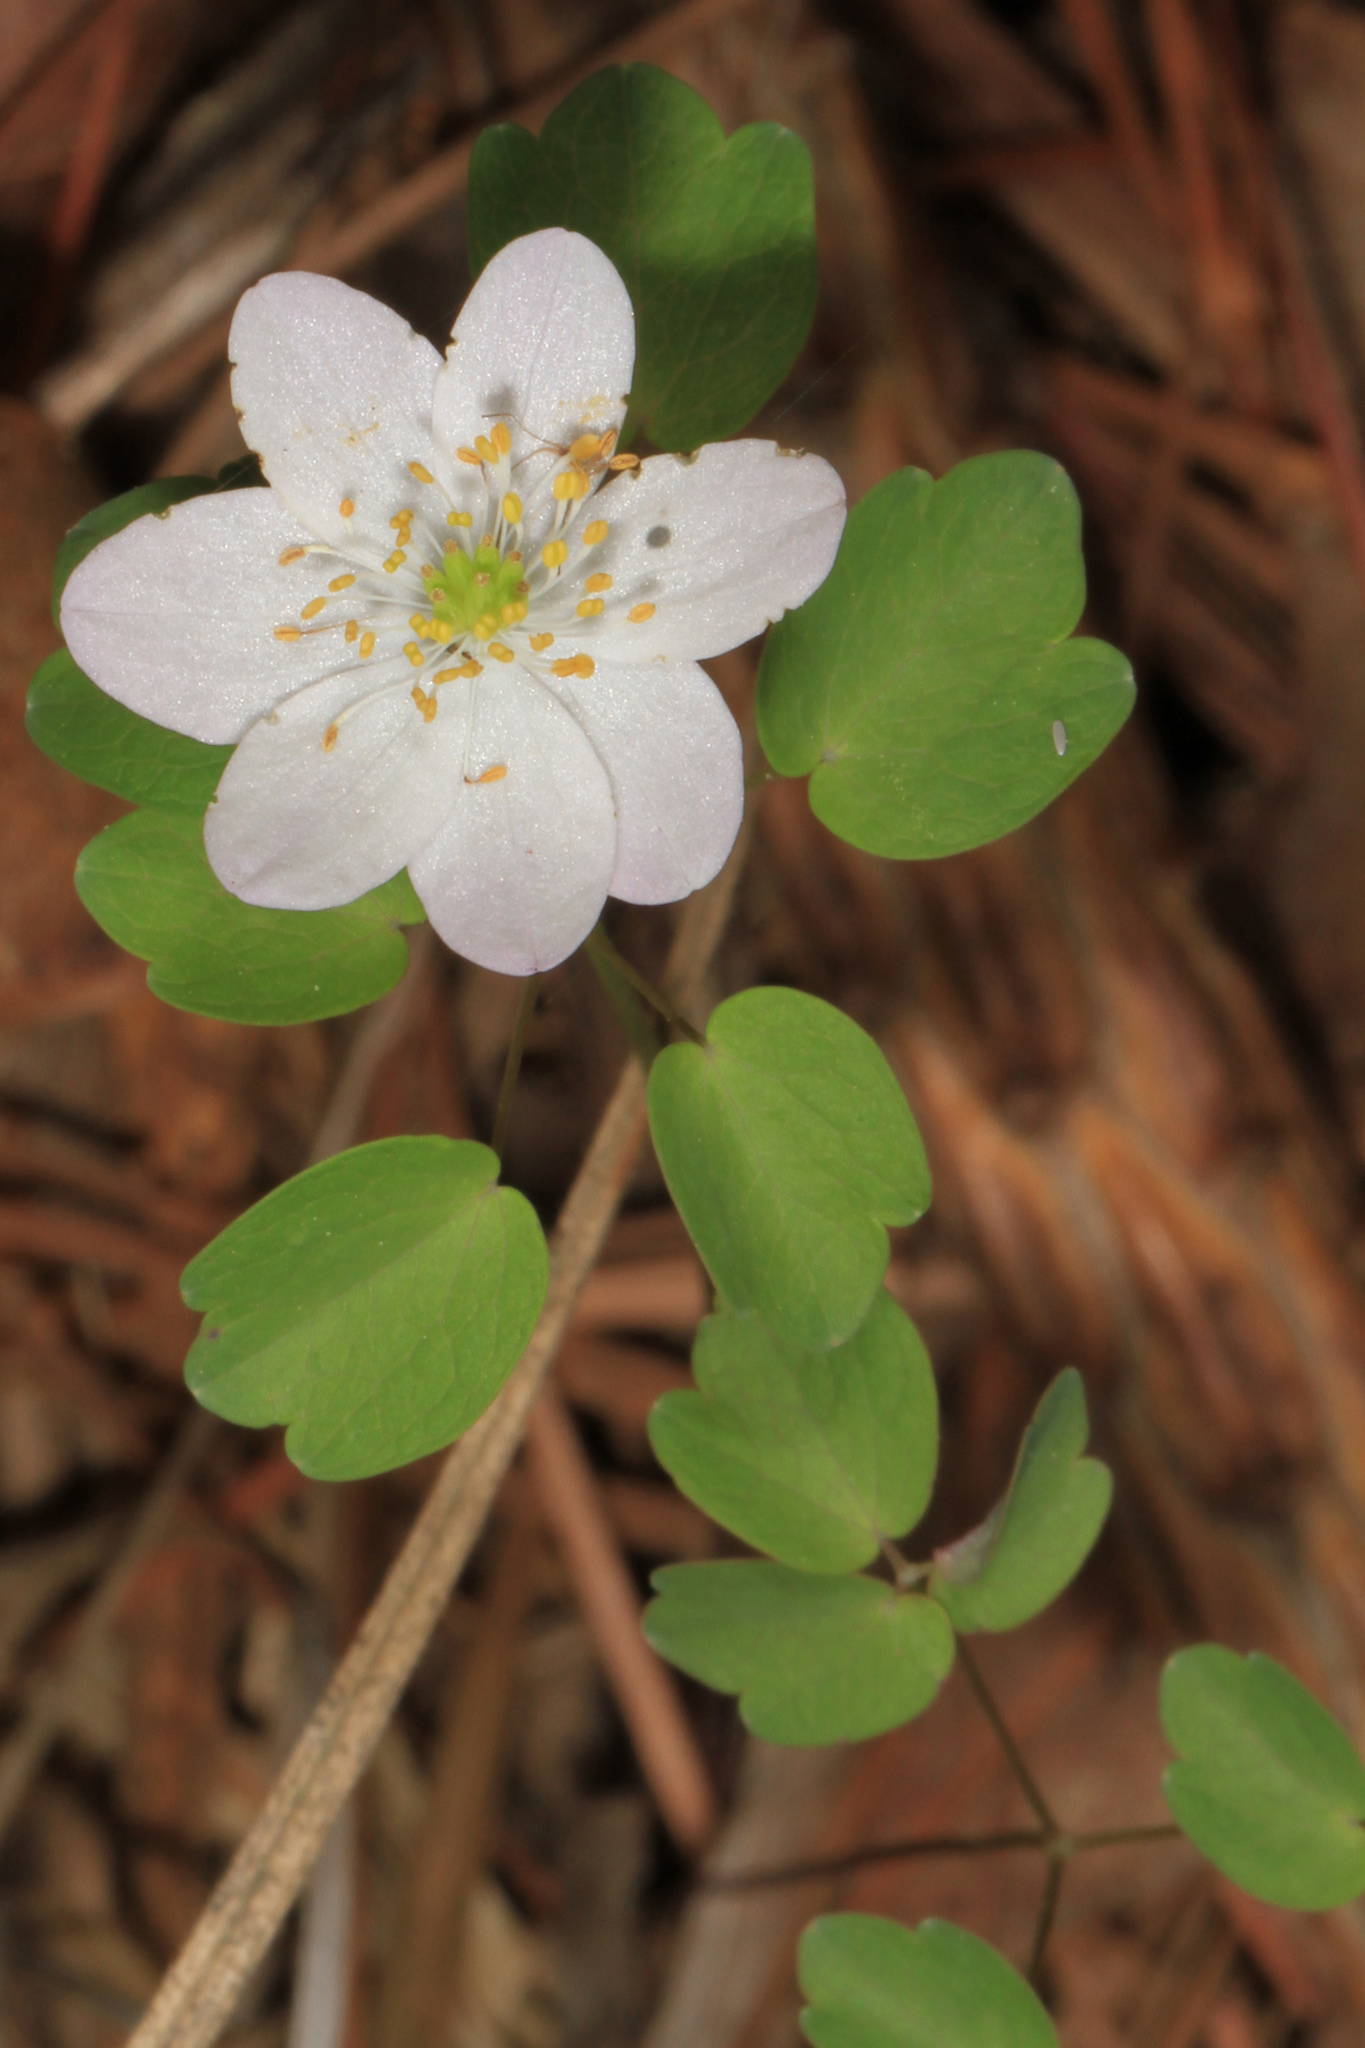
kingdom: Plantae
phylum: Tracheophyta
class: Magnoliopsida
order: Ranunculales
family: Ranunculaceae
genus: Thalictrum
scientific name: Thalictrum thalictroides
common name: Rue-anemone
